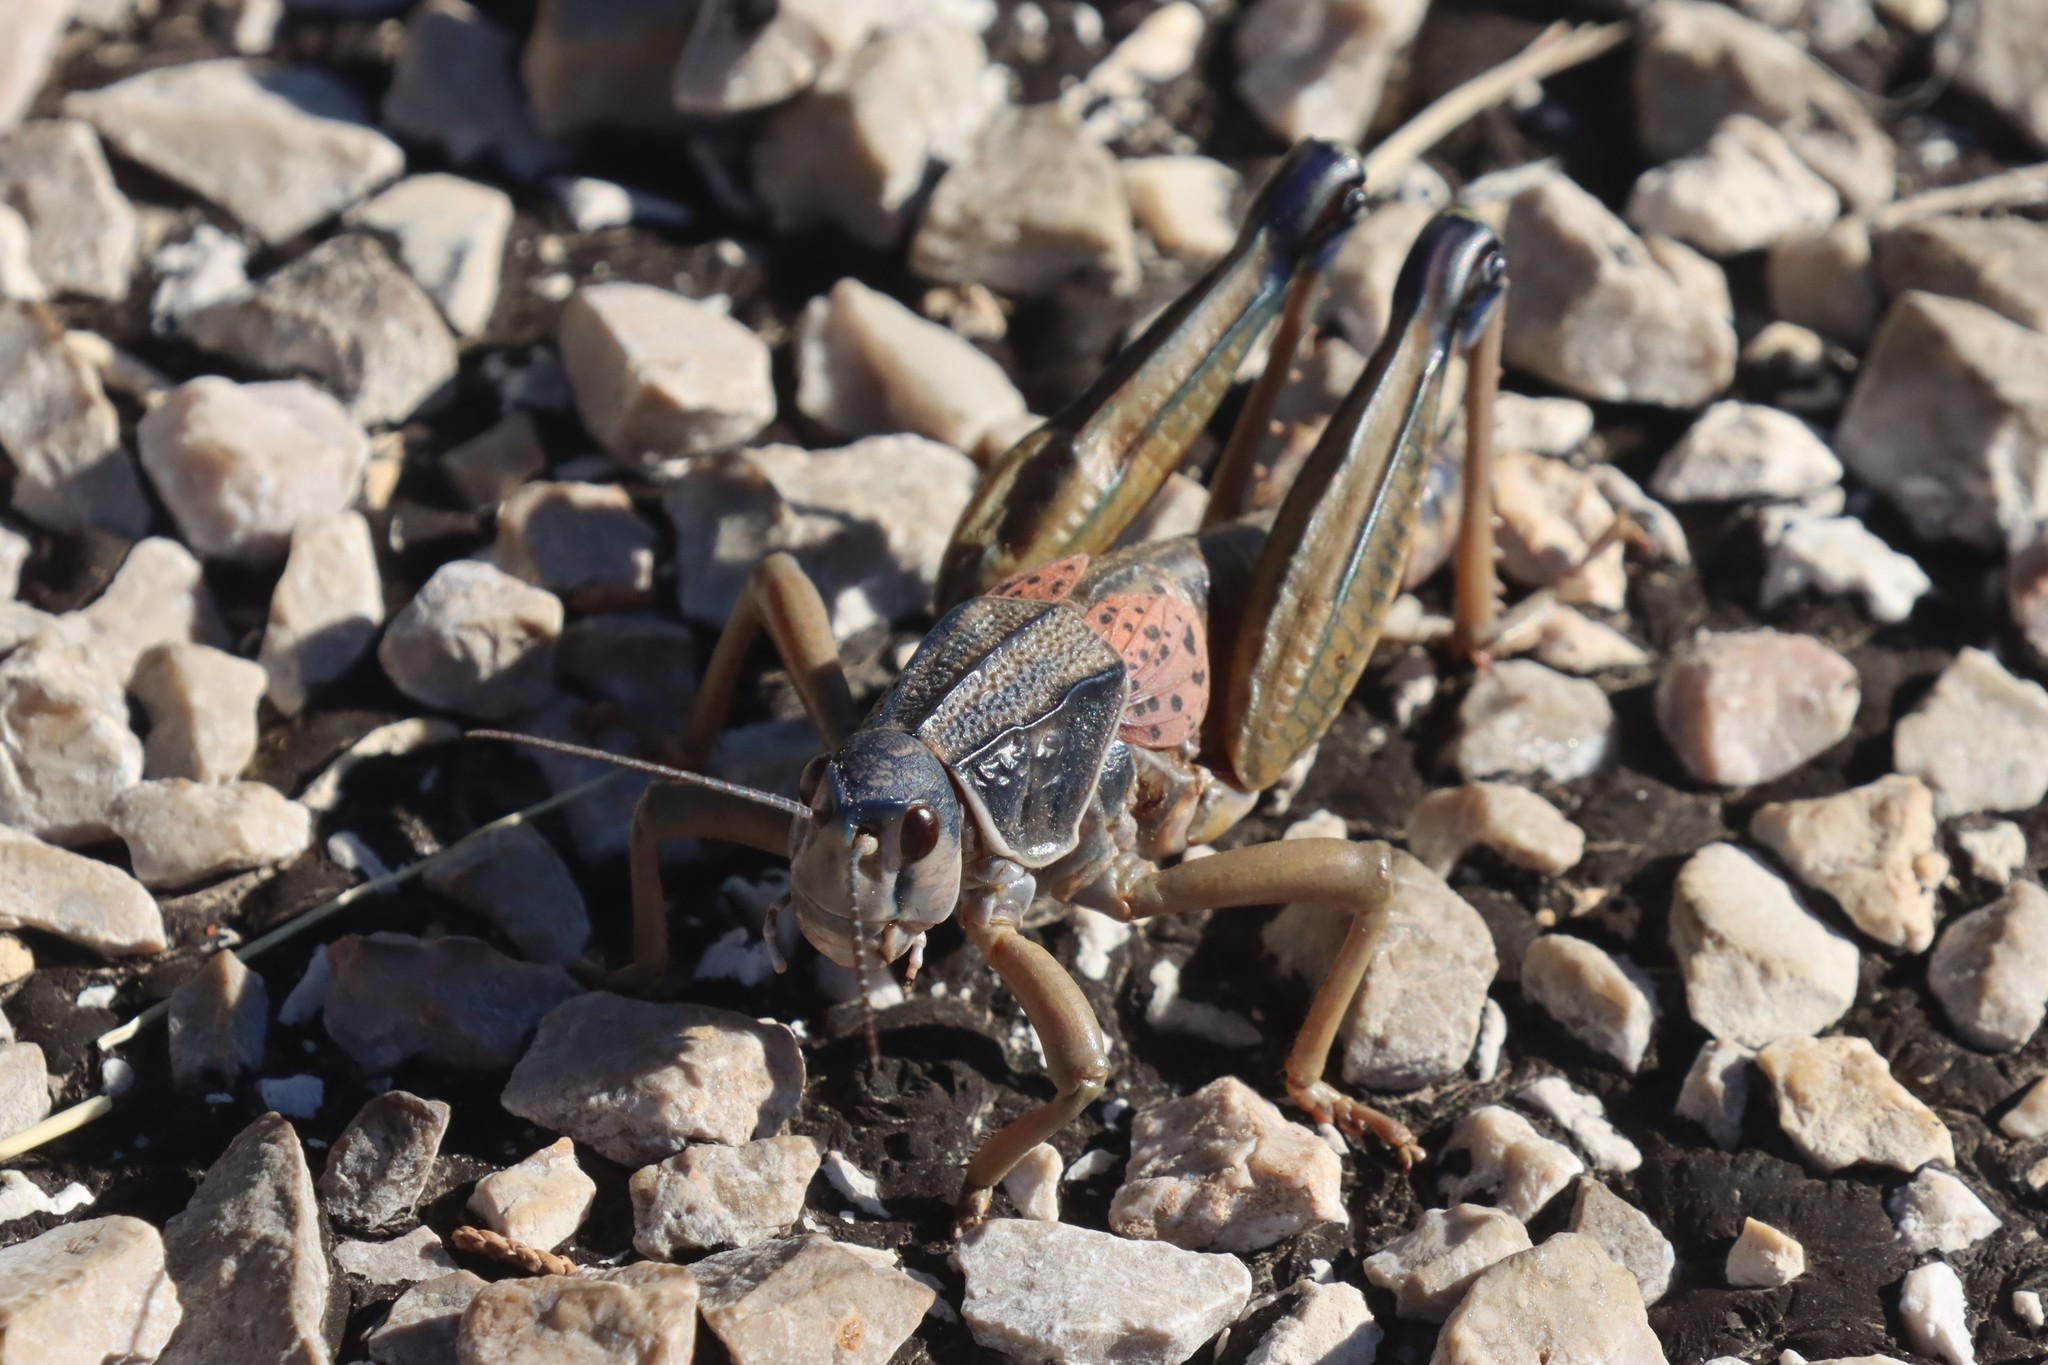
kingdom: Animalia
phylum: Arthropoda
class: Insecta
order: Orthoptera
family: Romaleidae
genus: Brachystola
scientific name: Brachystola magna
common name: Plains lubber grasshopper
